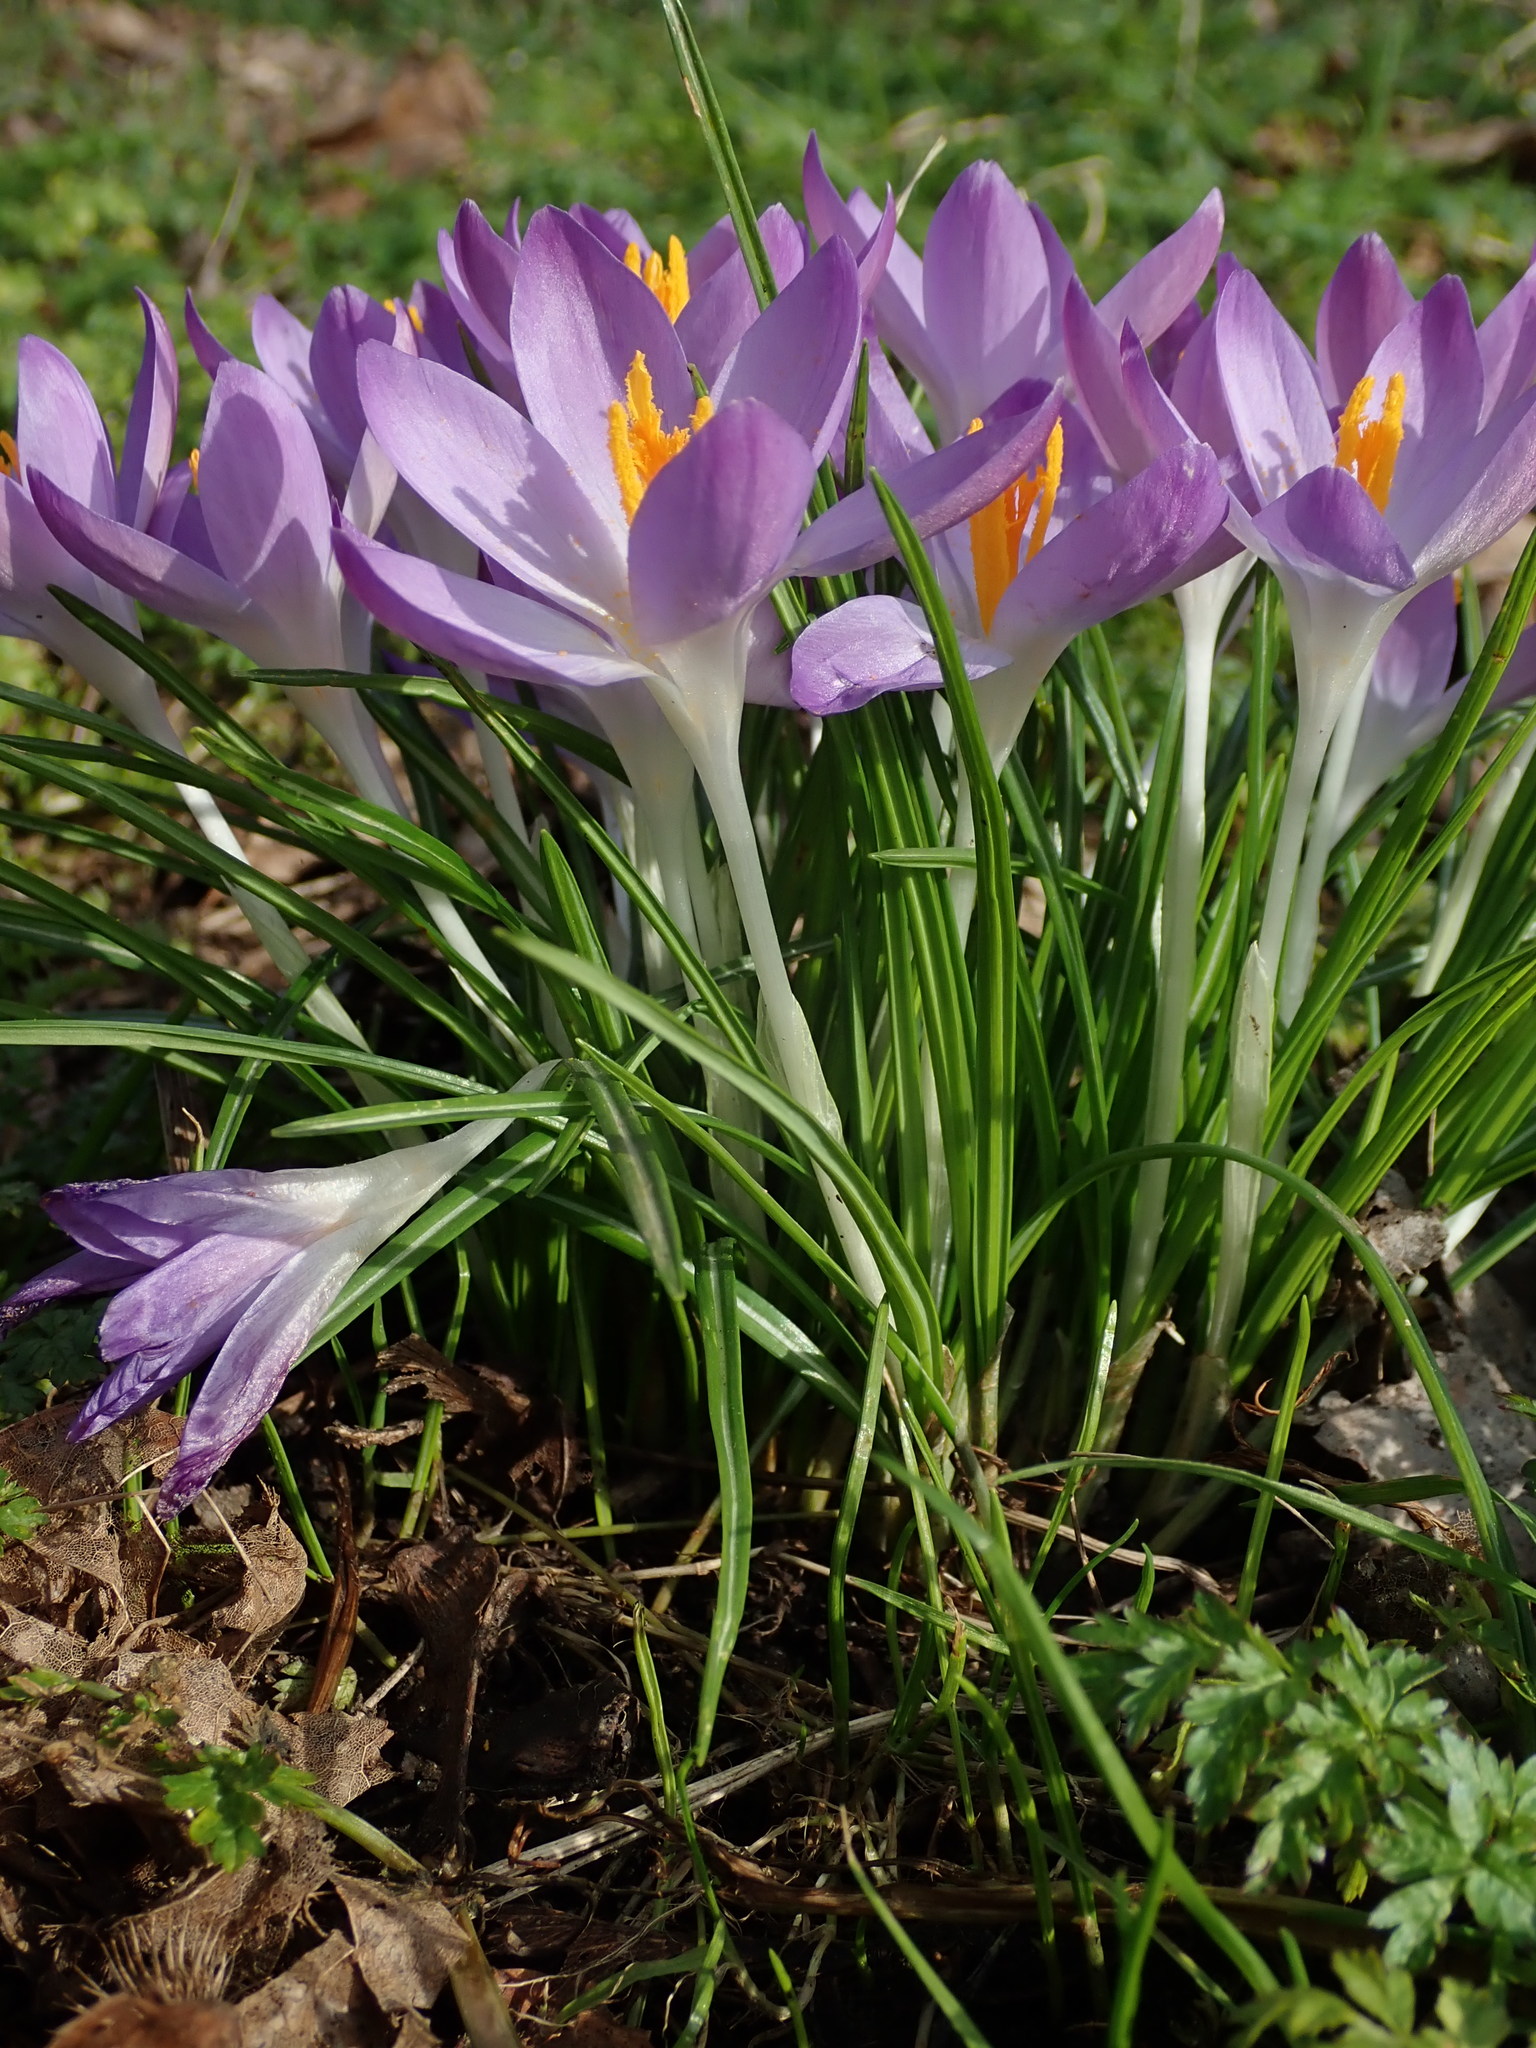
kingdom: Plantae
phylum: Tracheophyta
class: Liliopsida
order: Asparagales
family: Iridaceae
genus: Crocus
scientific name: Crocus tommasinianus
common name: Early crocus
